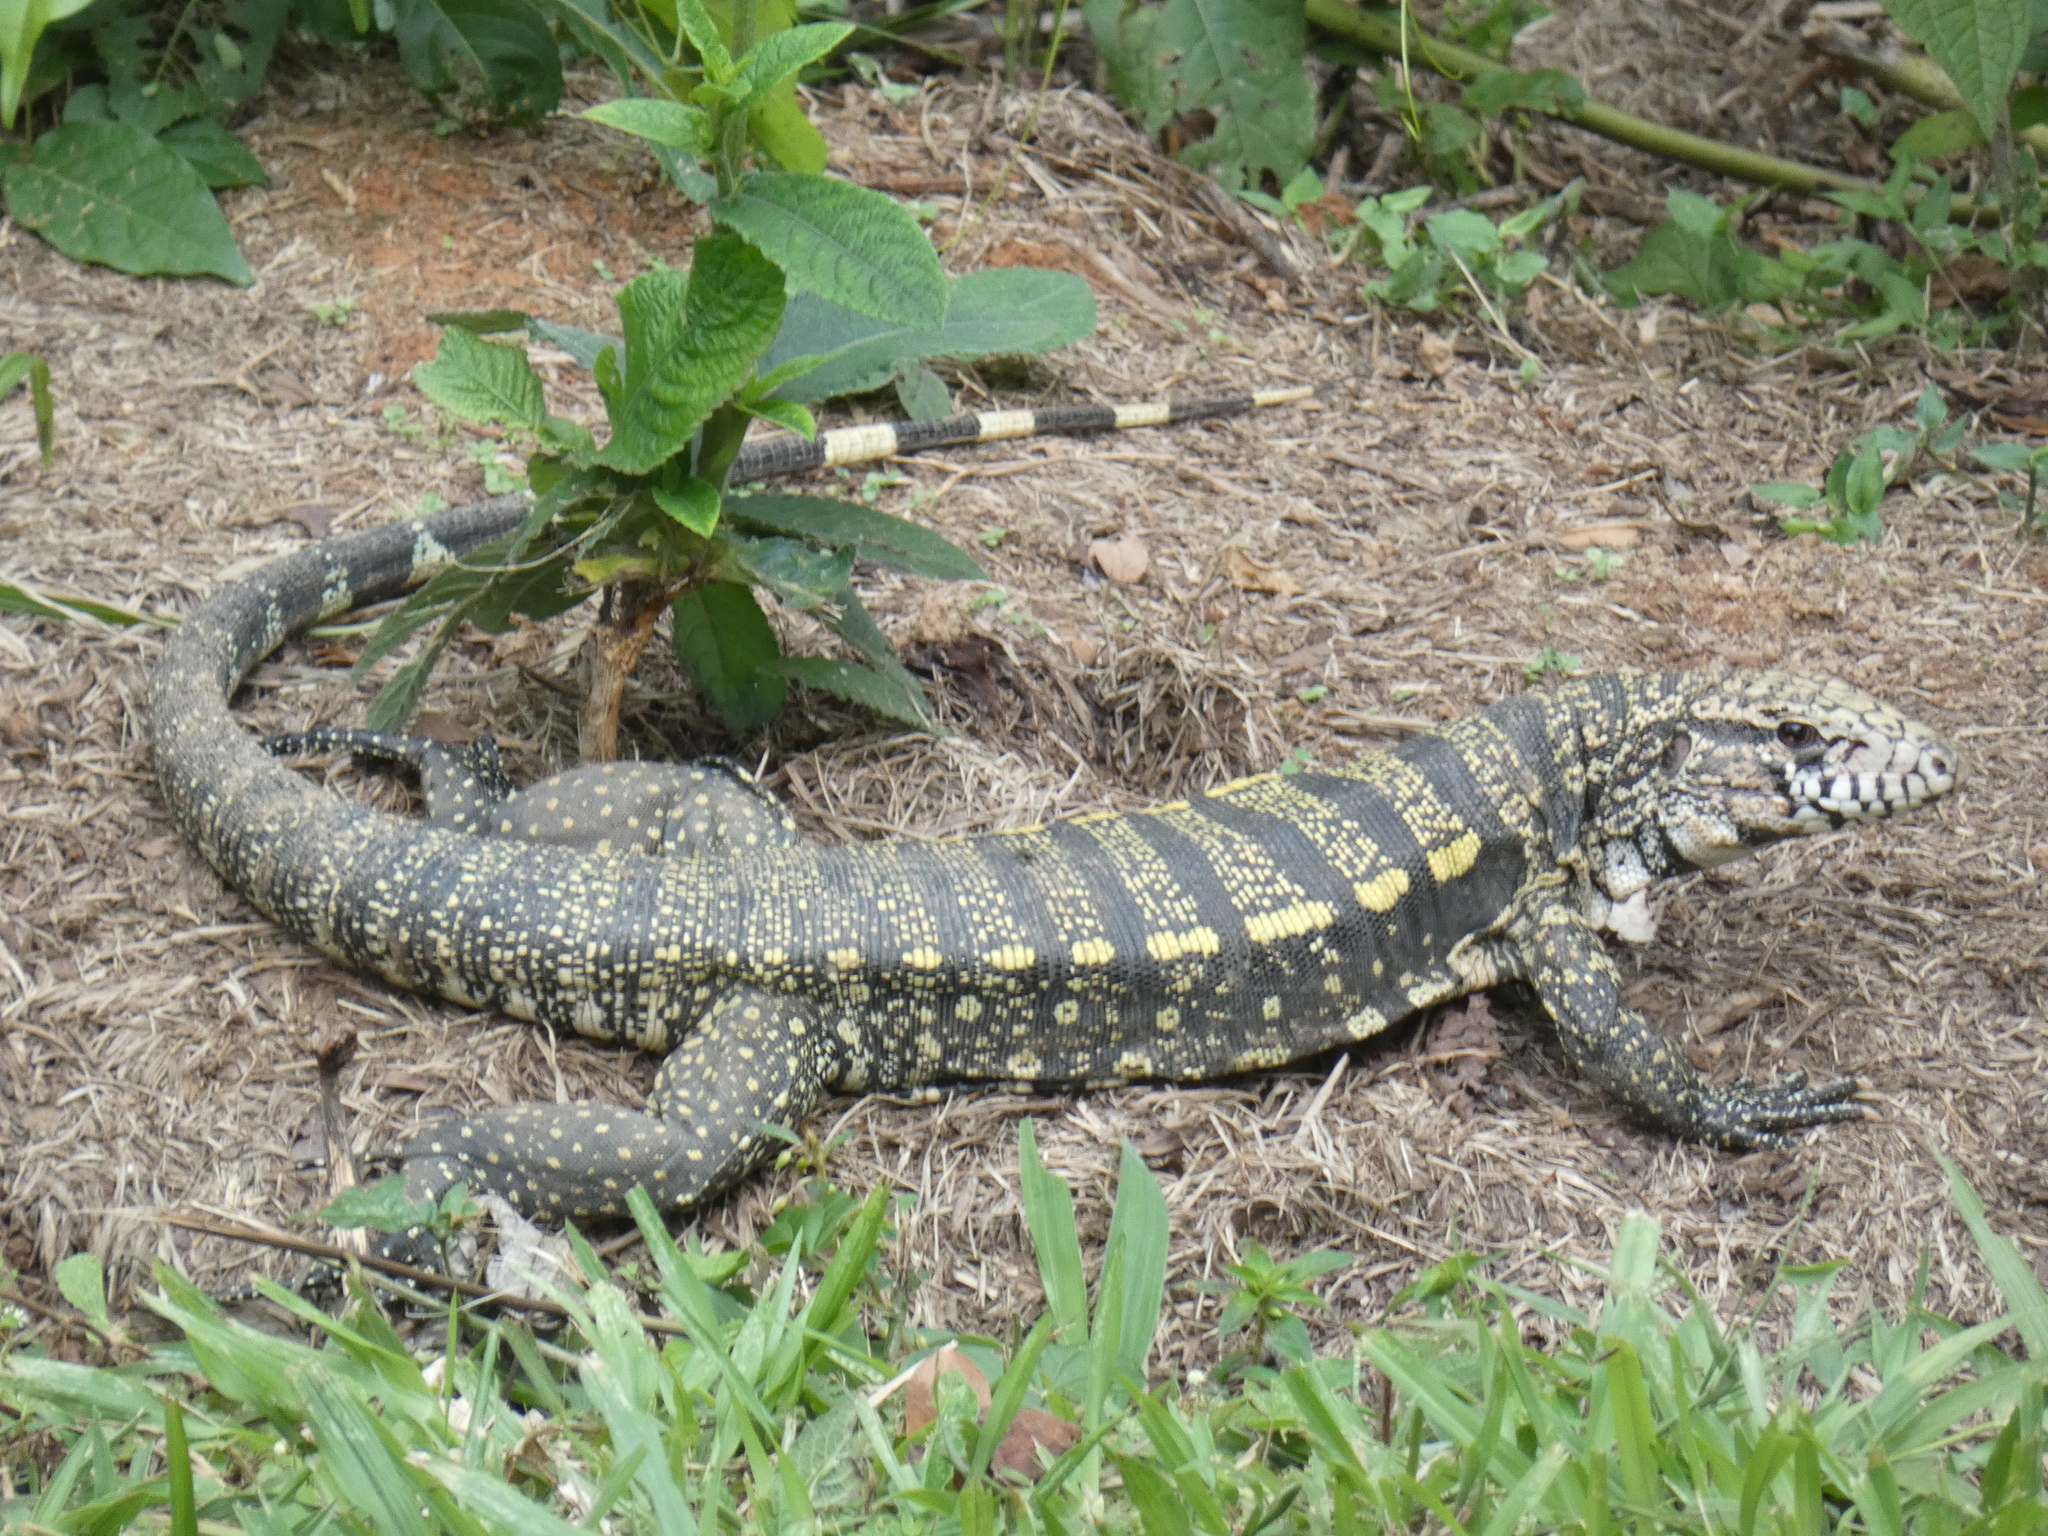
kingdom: Animalia
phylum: Chordata
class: Squamata
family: Teiidae
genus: Salvator
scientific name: Salvator merianae
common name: Argentine black and white tegu
